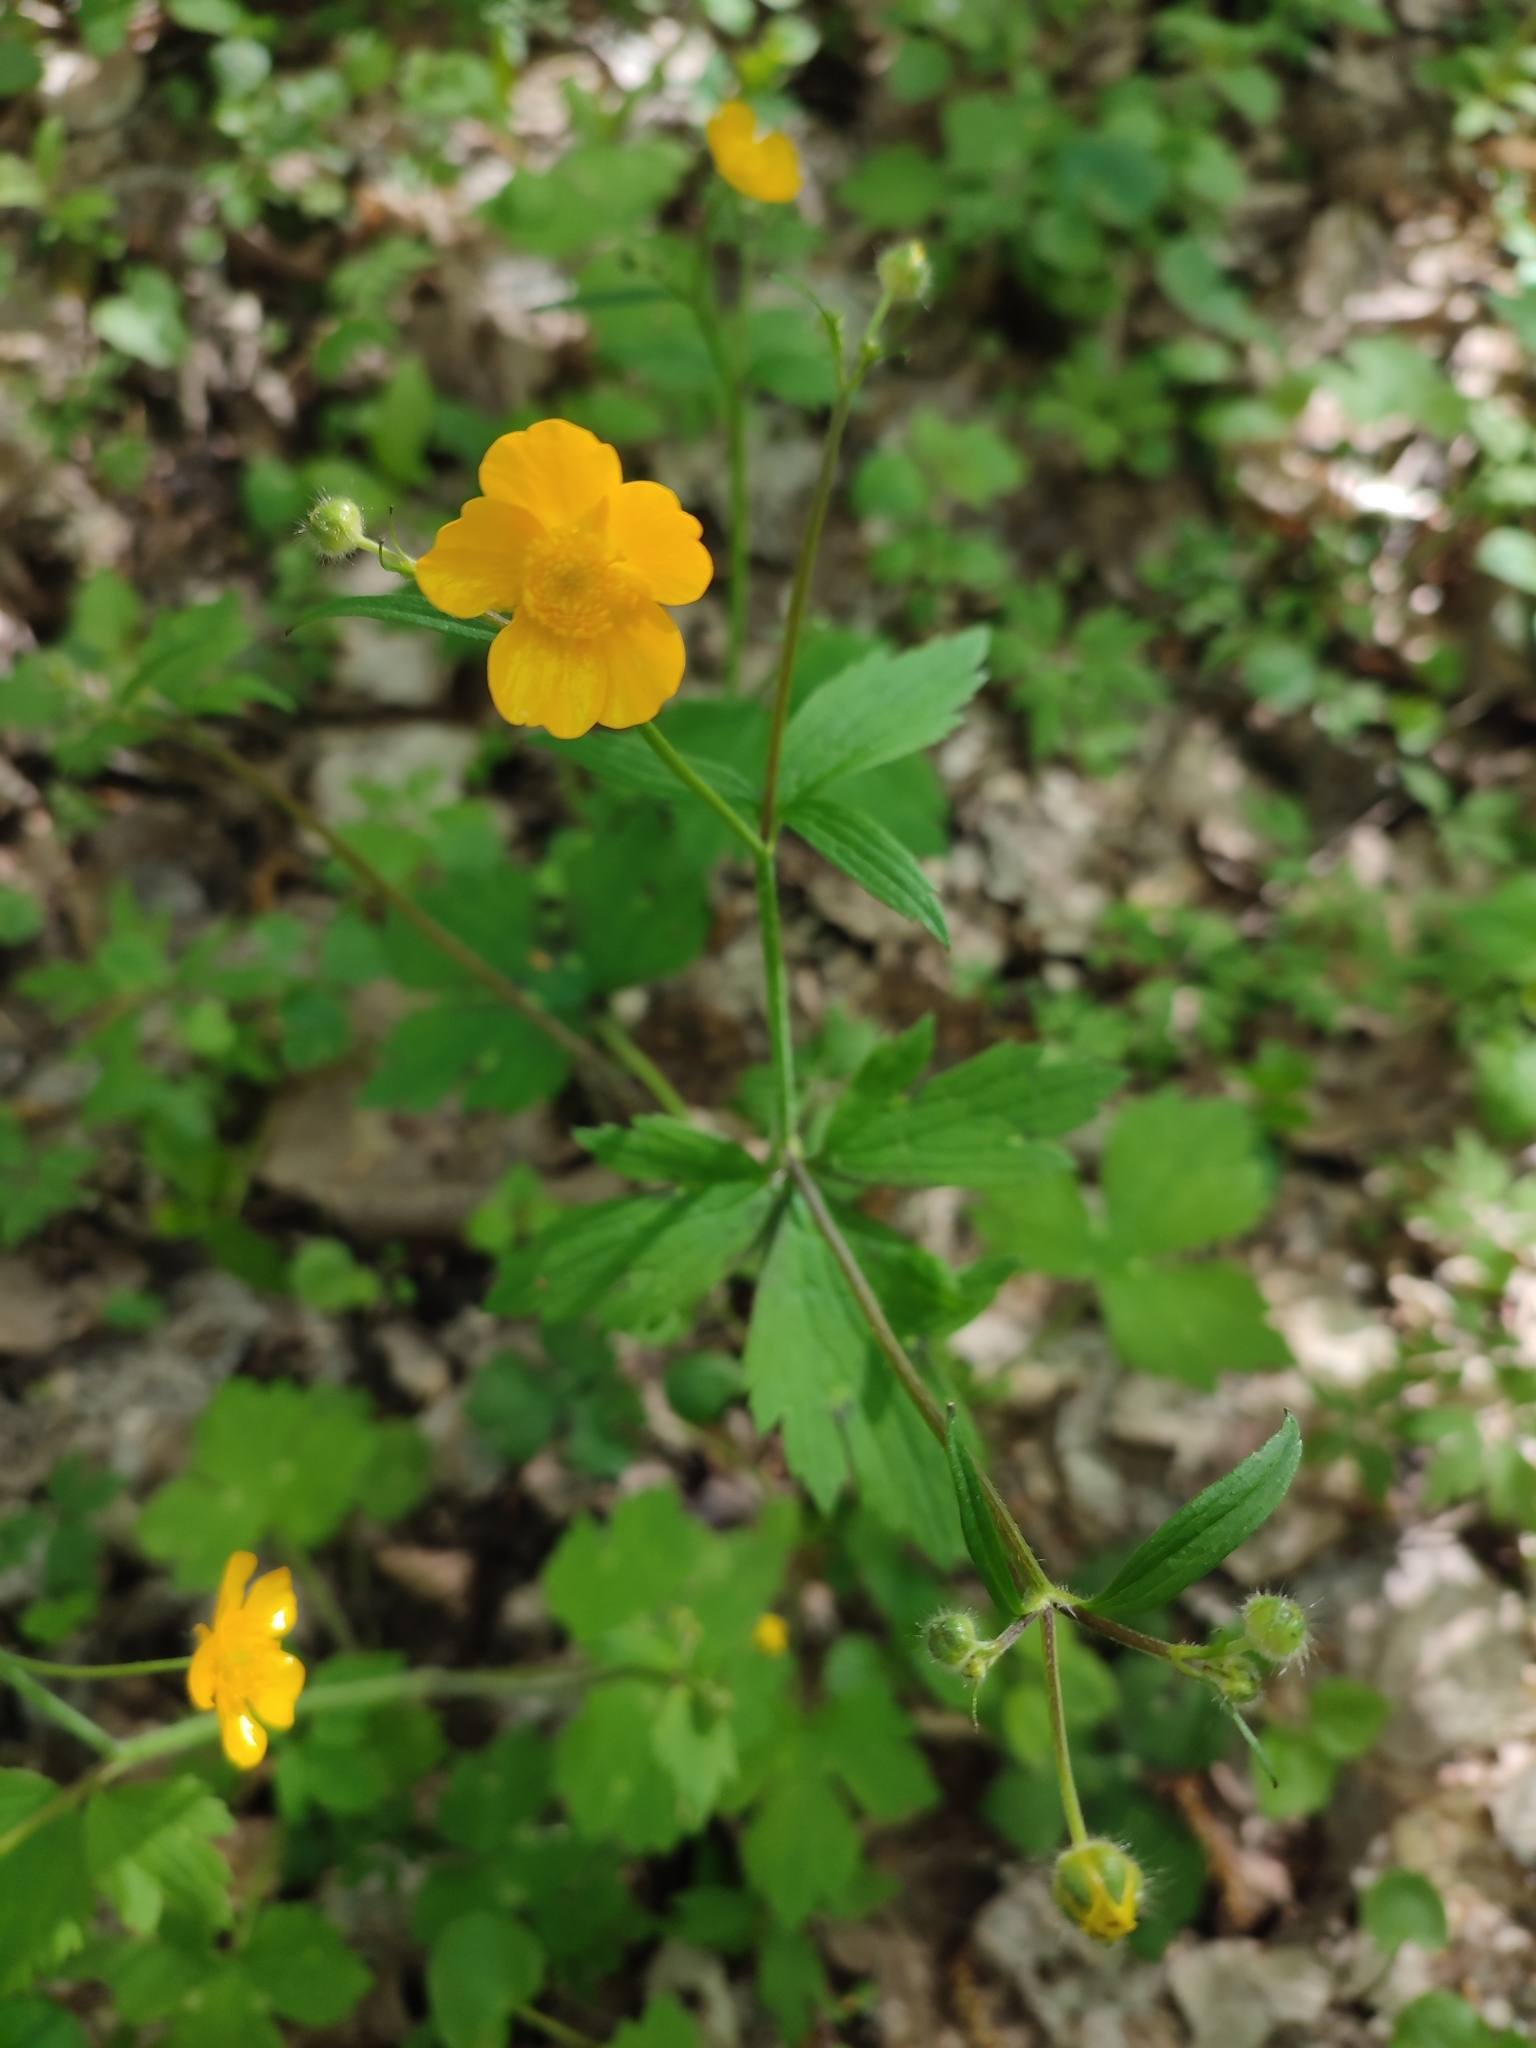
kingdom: Plantae
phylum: Tracheophyta
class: Magnoliopsida
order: Ranunculales
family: Ranunculaceae
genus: Ranunculus
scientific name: Ranunculus lanuginosus
